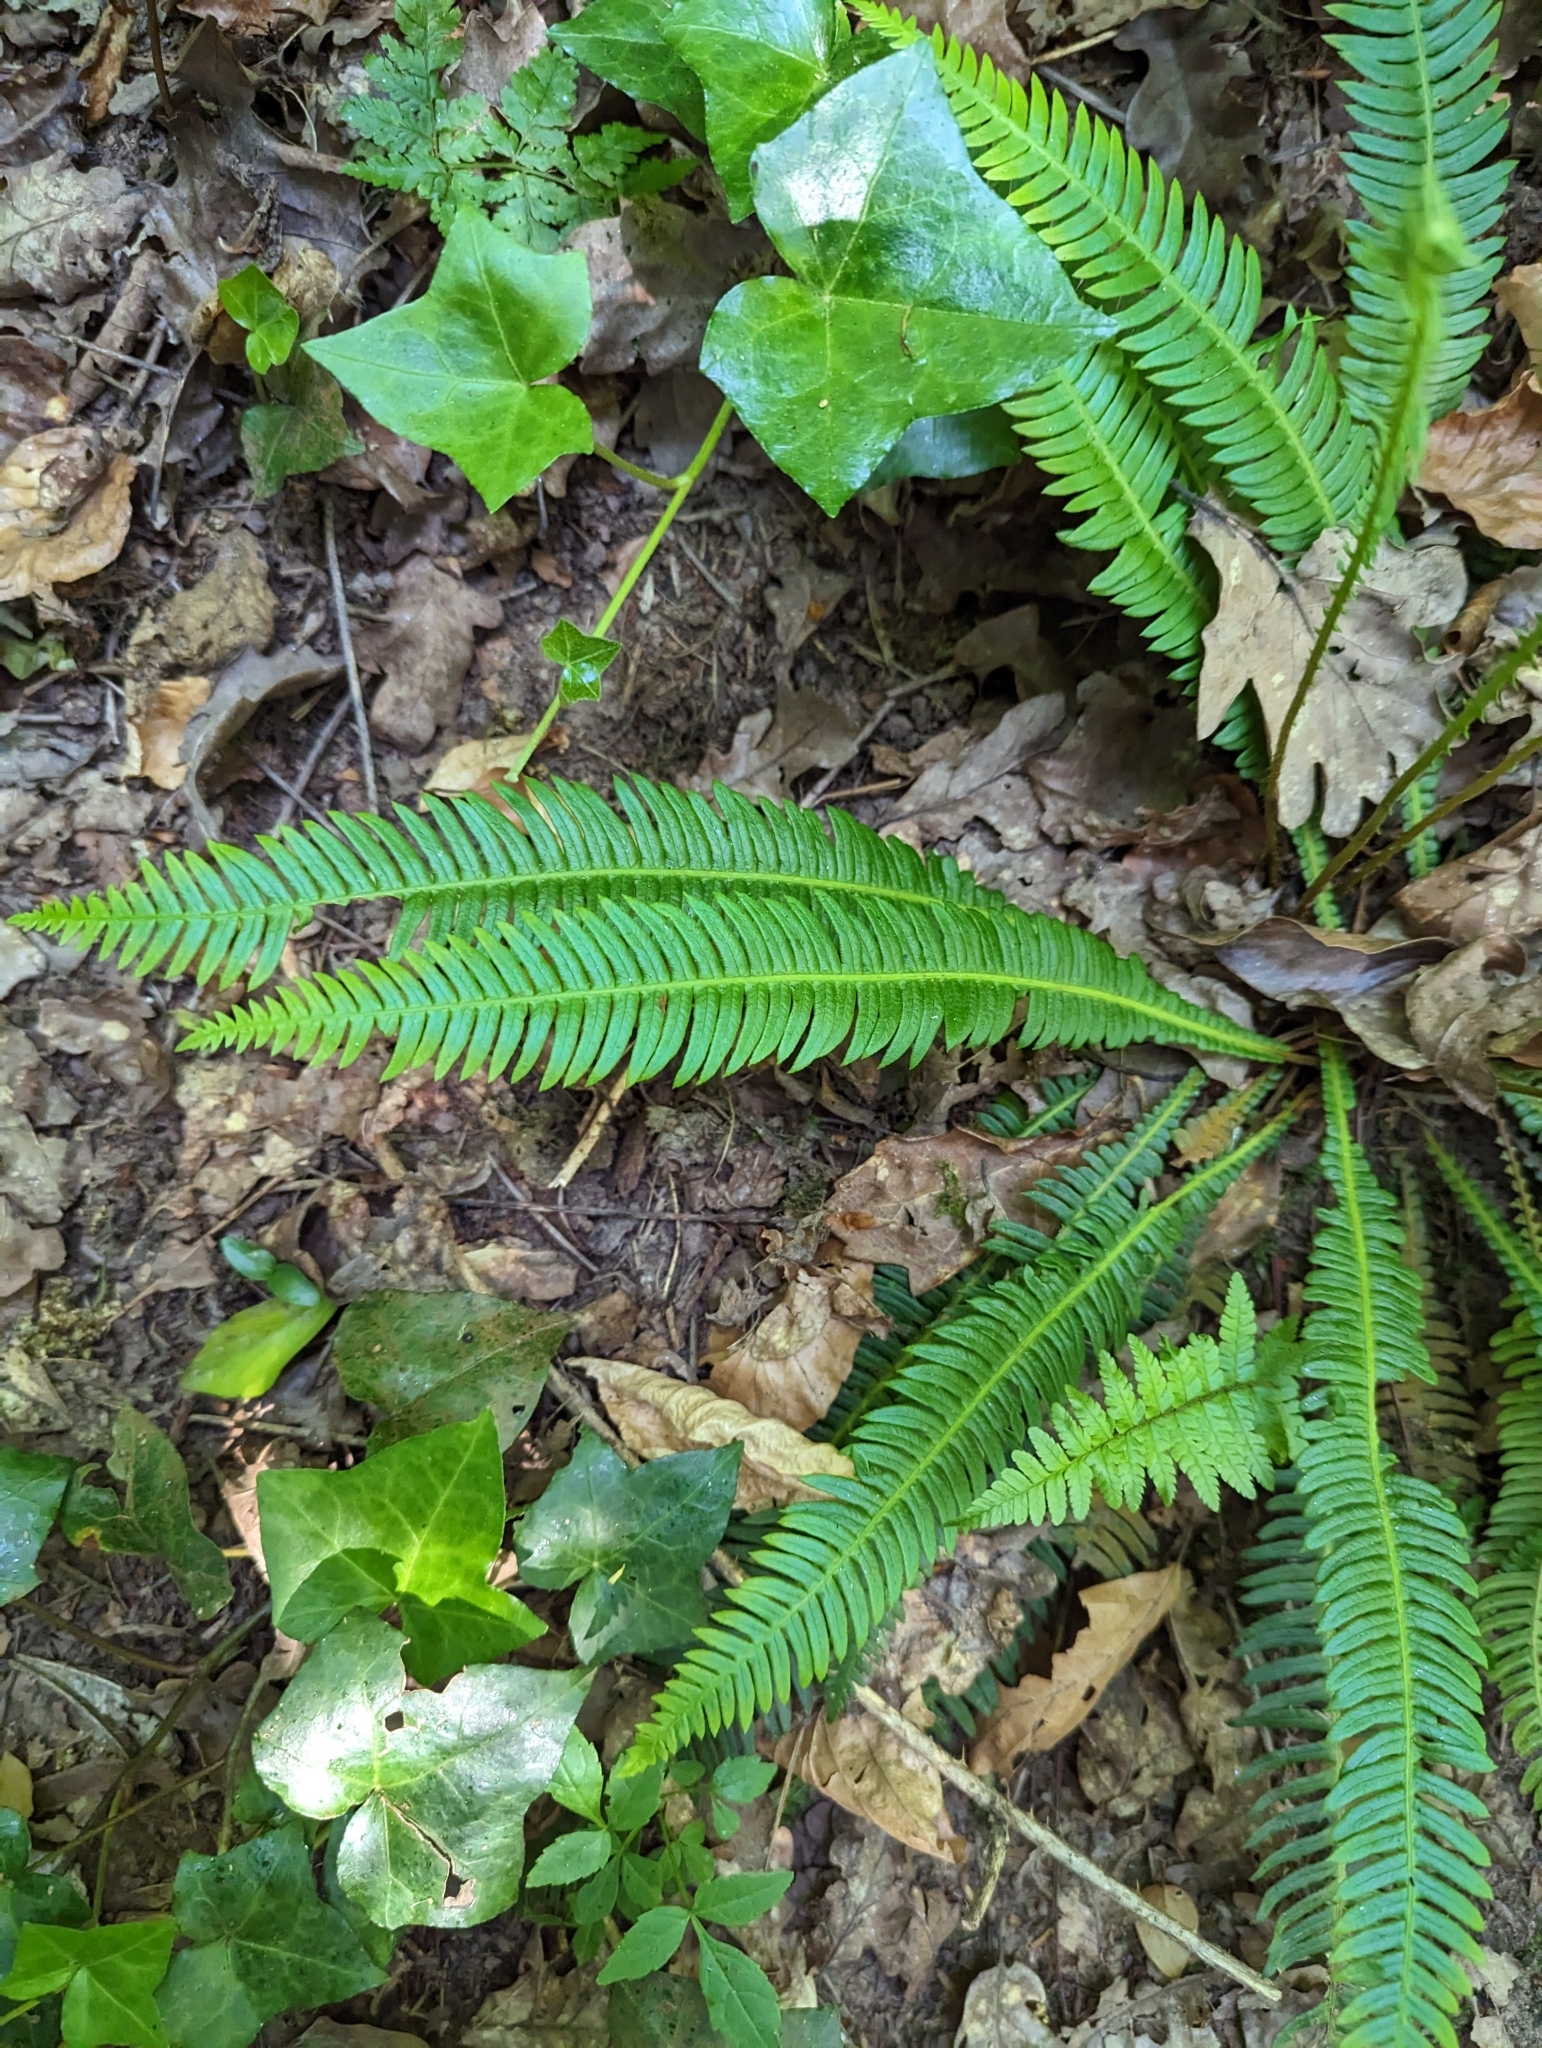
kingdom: Plantae
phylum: Tracheophyta
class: Polypodiopsida
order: Polypodiales
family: Blechnaceae
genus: Struthiopteris
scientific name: Struthiopteris spicant
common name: Deer fern
